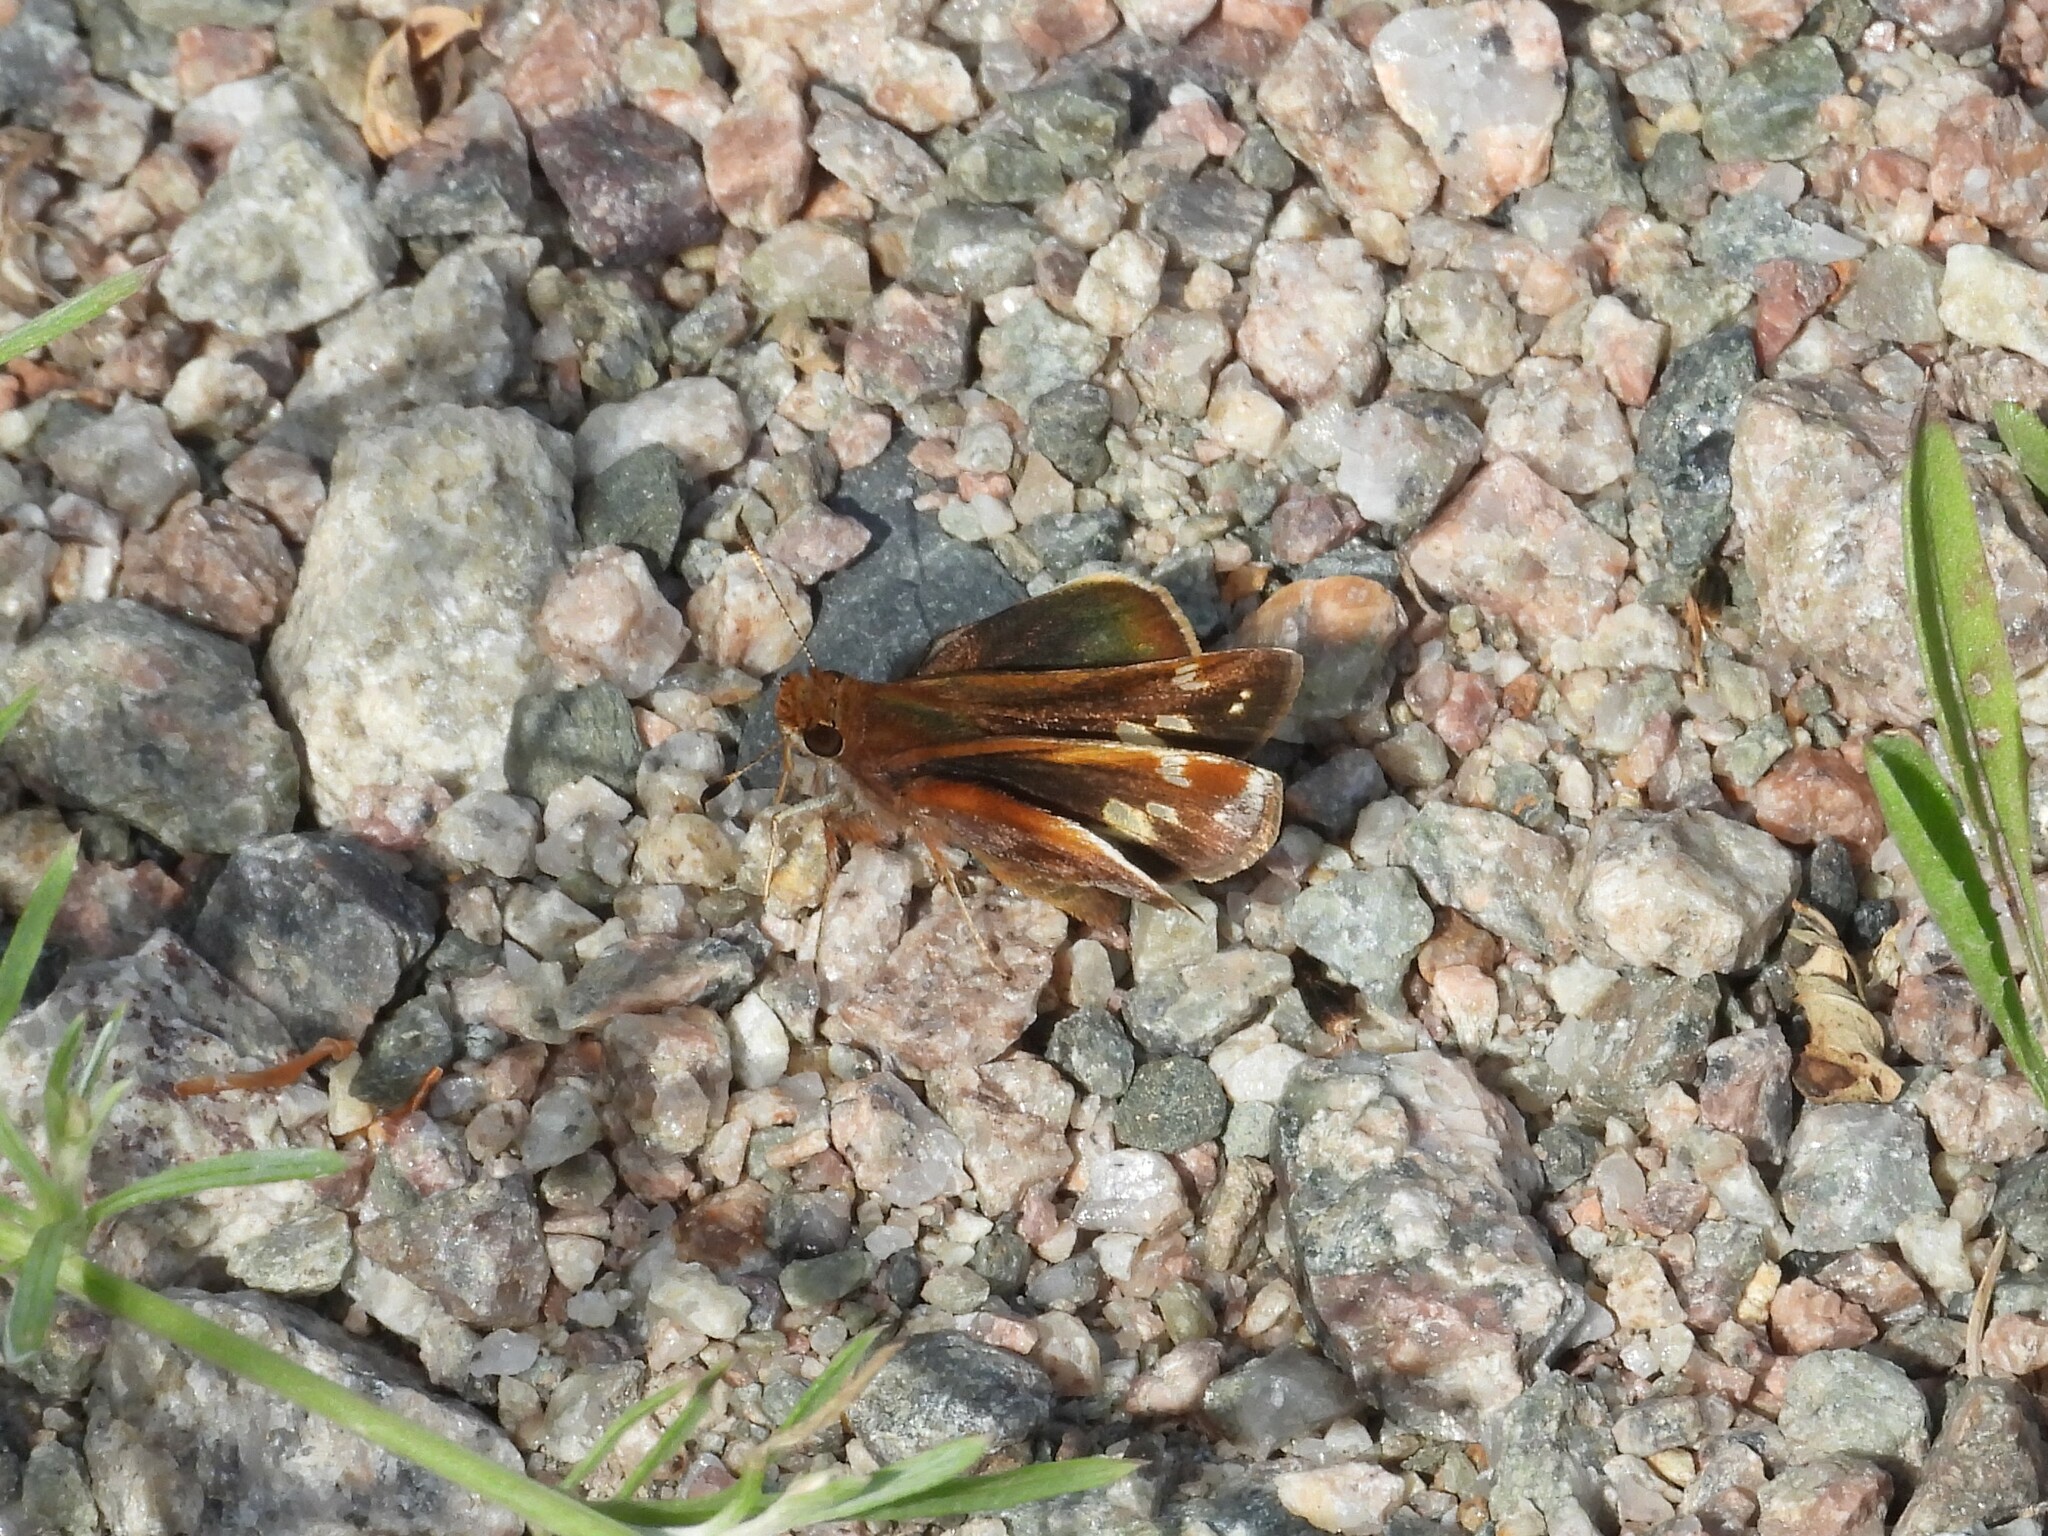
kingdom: Animalia
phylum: Arthropoda
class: Insecta
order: Lepidoptera
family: Hesperiidae
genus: Lon
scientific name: Lon zabulon
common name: Zabulon skipper
